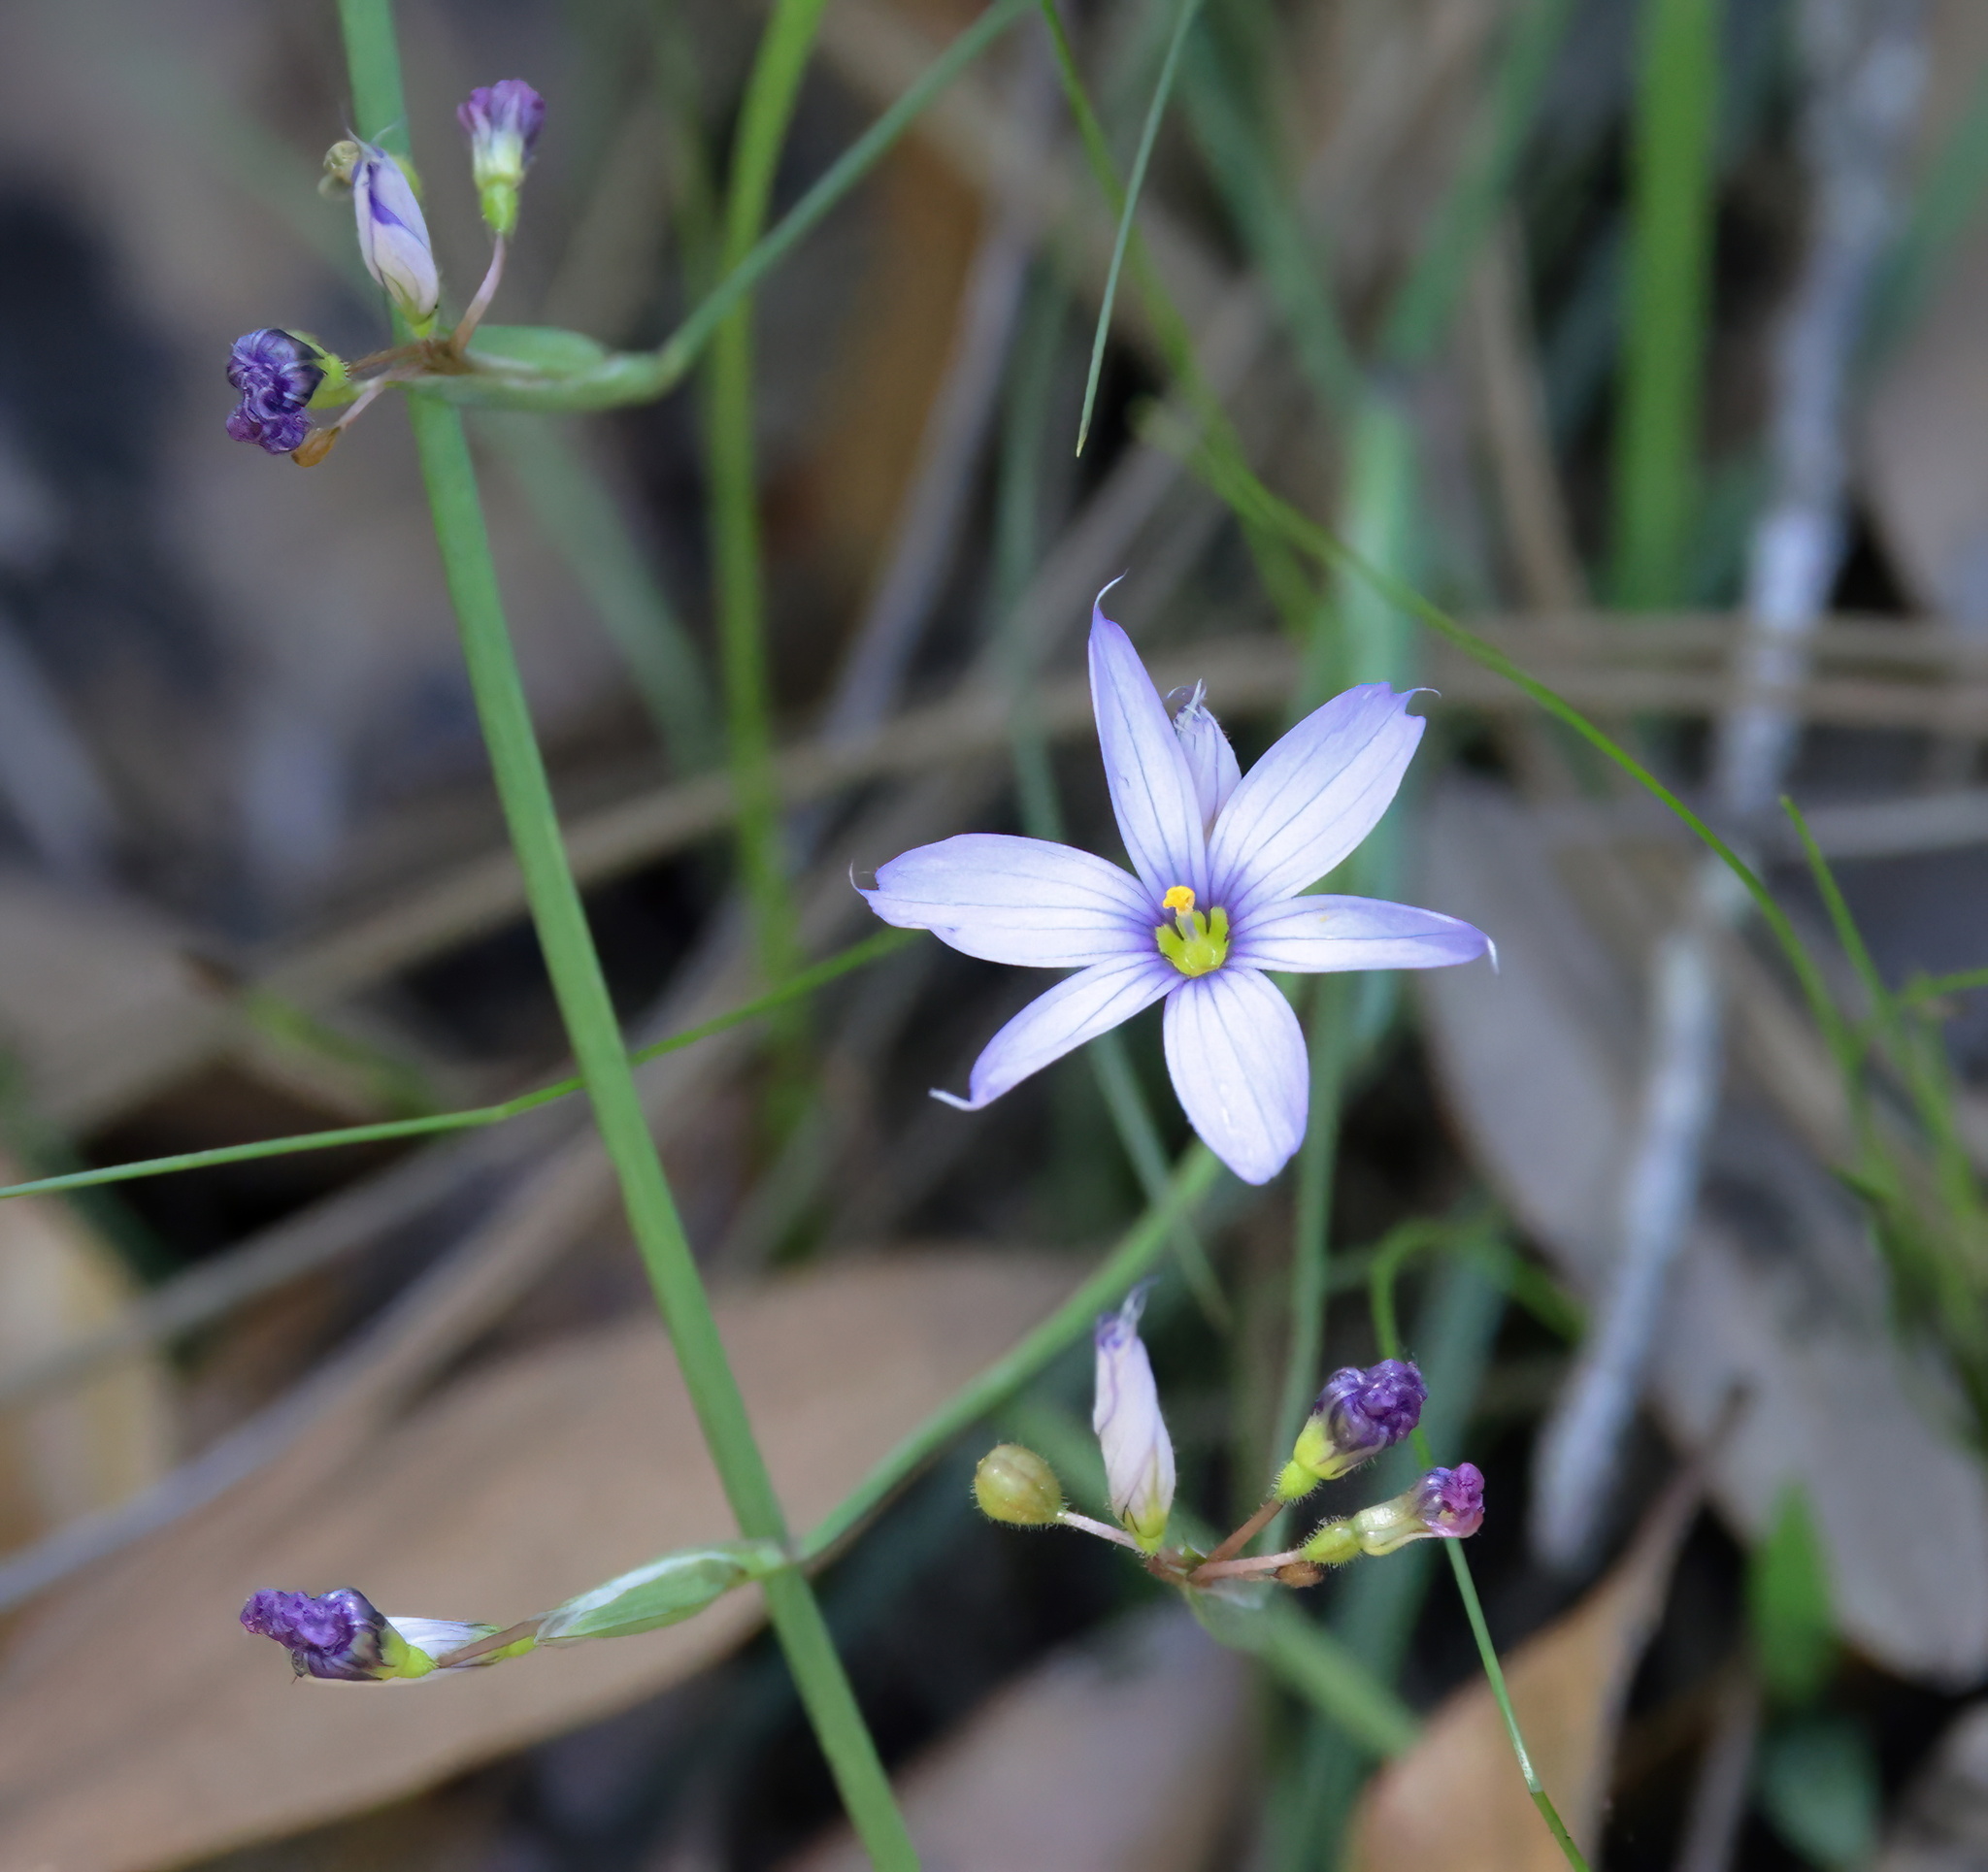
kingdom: Plantae
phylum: Tracheophyta
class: Liliopsida
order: Asparagales
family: Iridaceae
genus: Sisyrinchium
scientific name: Sisyrinchium angustifolium
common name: Narrow-leaf blue-eyed-grass
